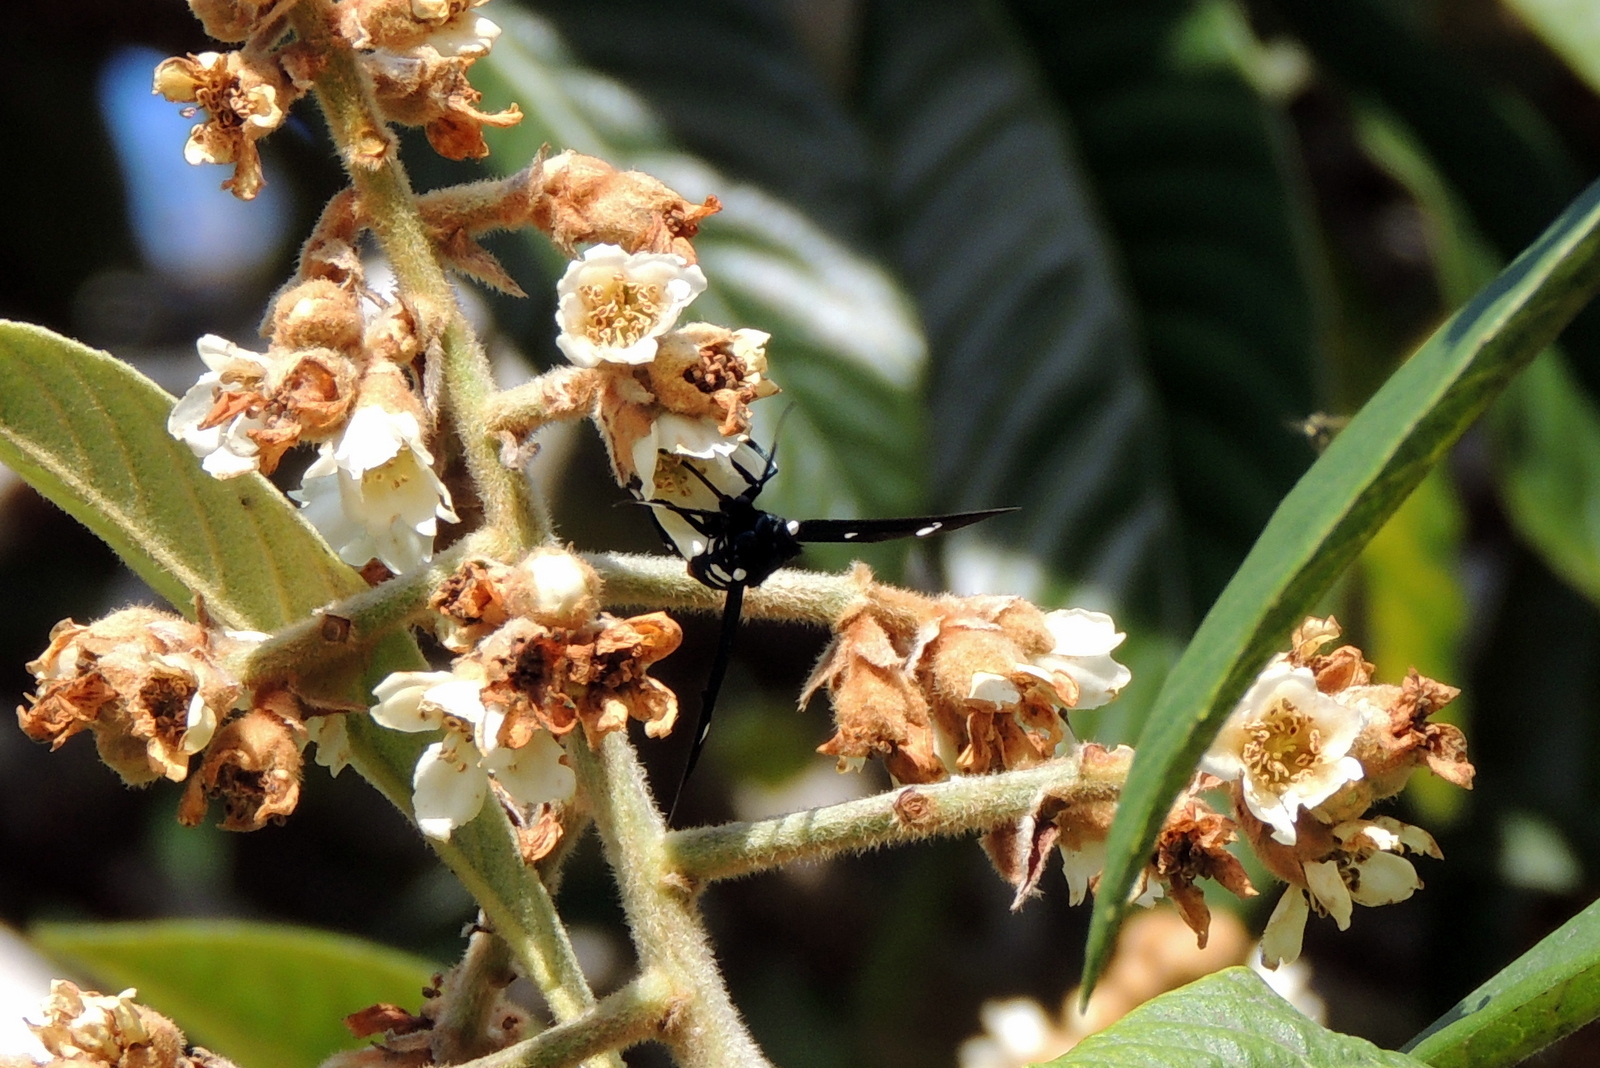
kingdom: Animalia
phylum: Arthropoda
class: Insecta
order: Lepidoptera
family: Erebidae
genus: Syntomeida
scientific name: Syntomeida epilais
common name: Polka-dot wasp moth
